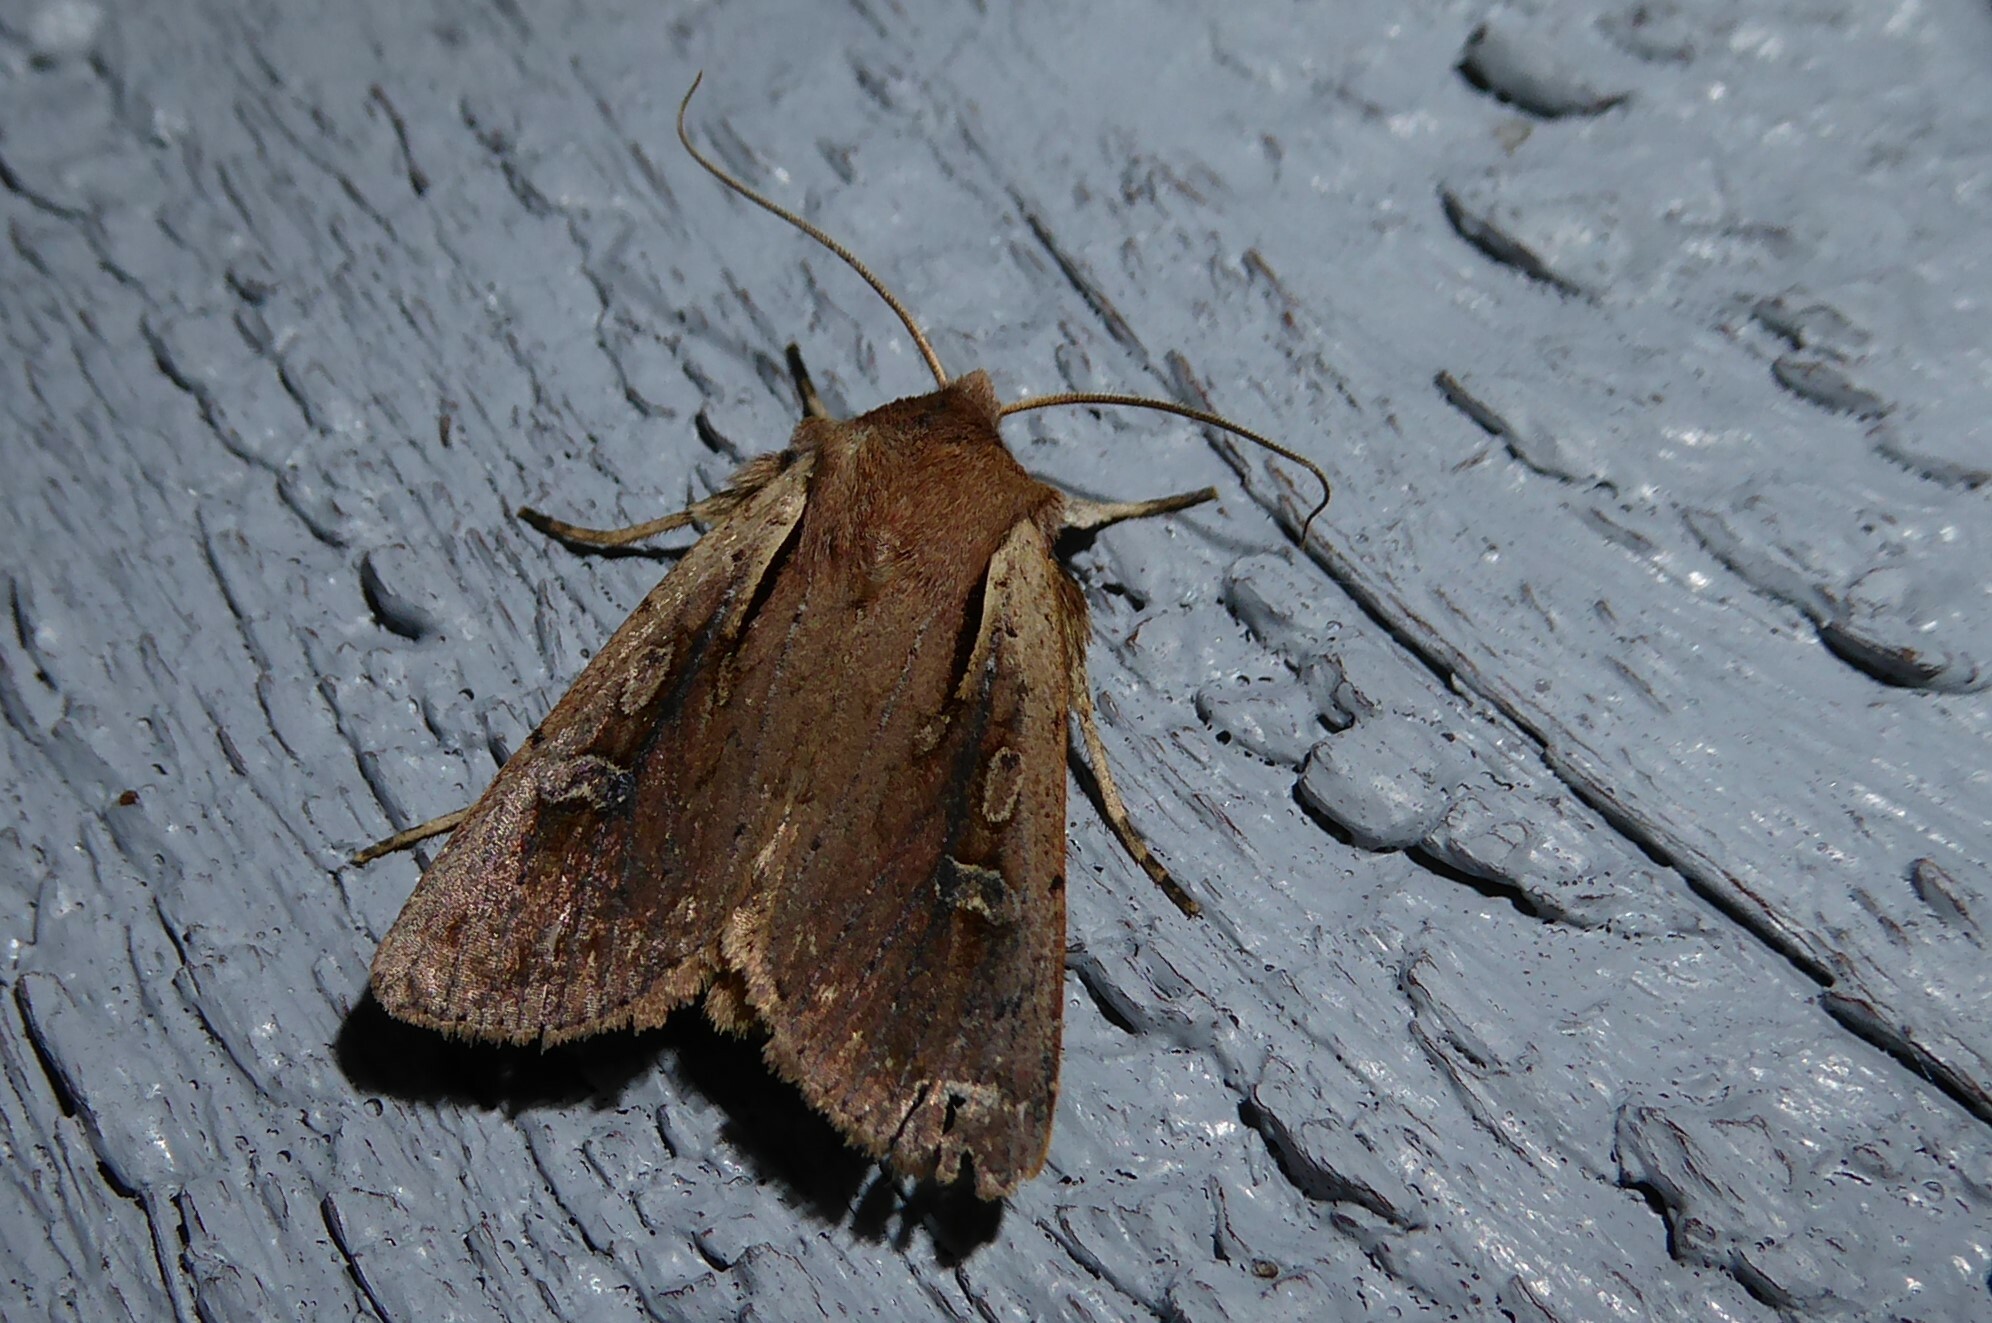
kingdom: Animalia
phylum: Arthropoda
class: Insecta
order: Lepidoptera
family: Noctuidae
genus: Ichneutica
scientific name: Ichneutica atristriga
